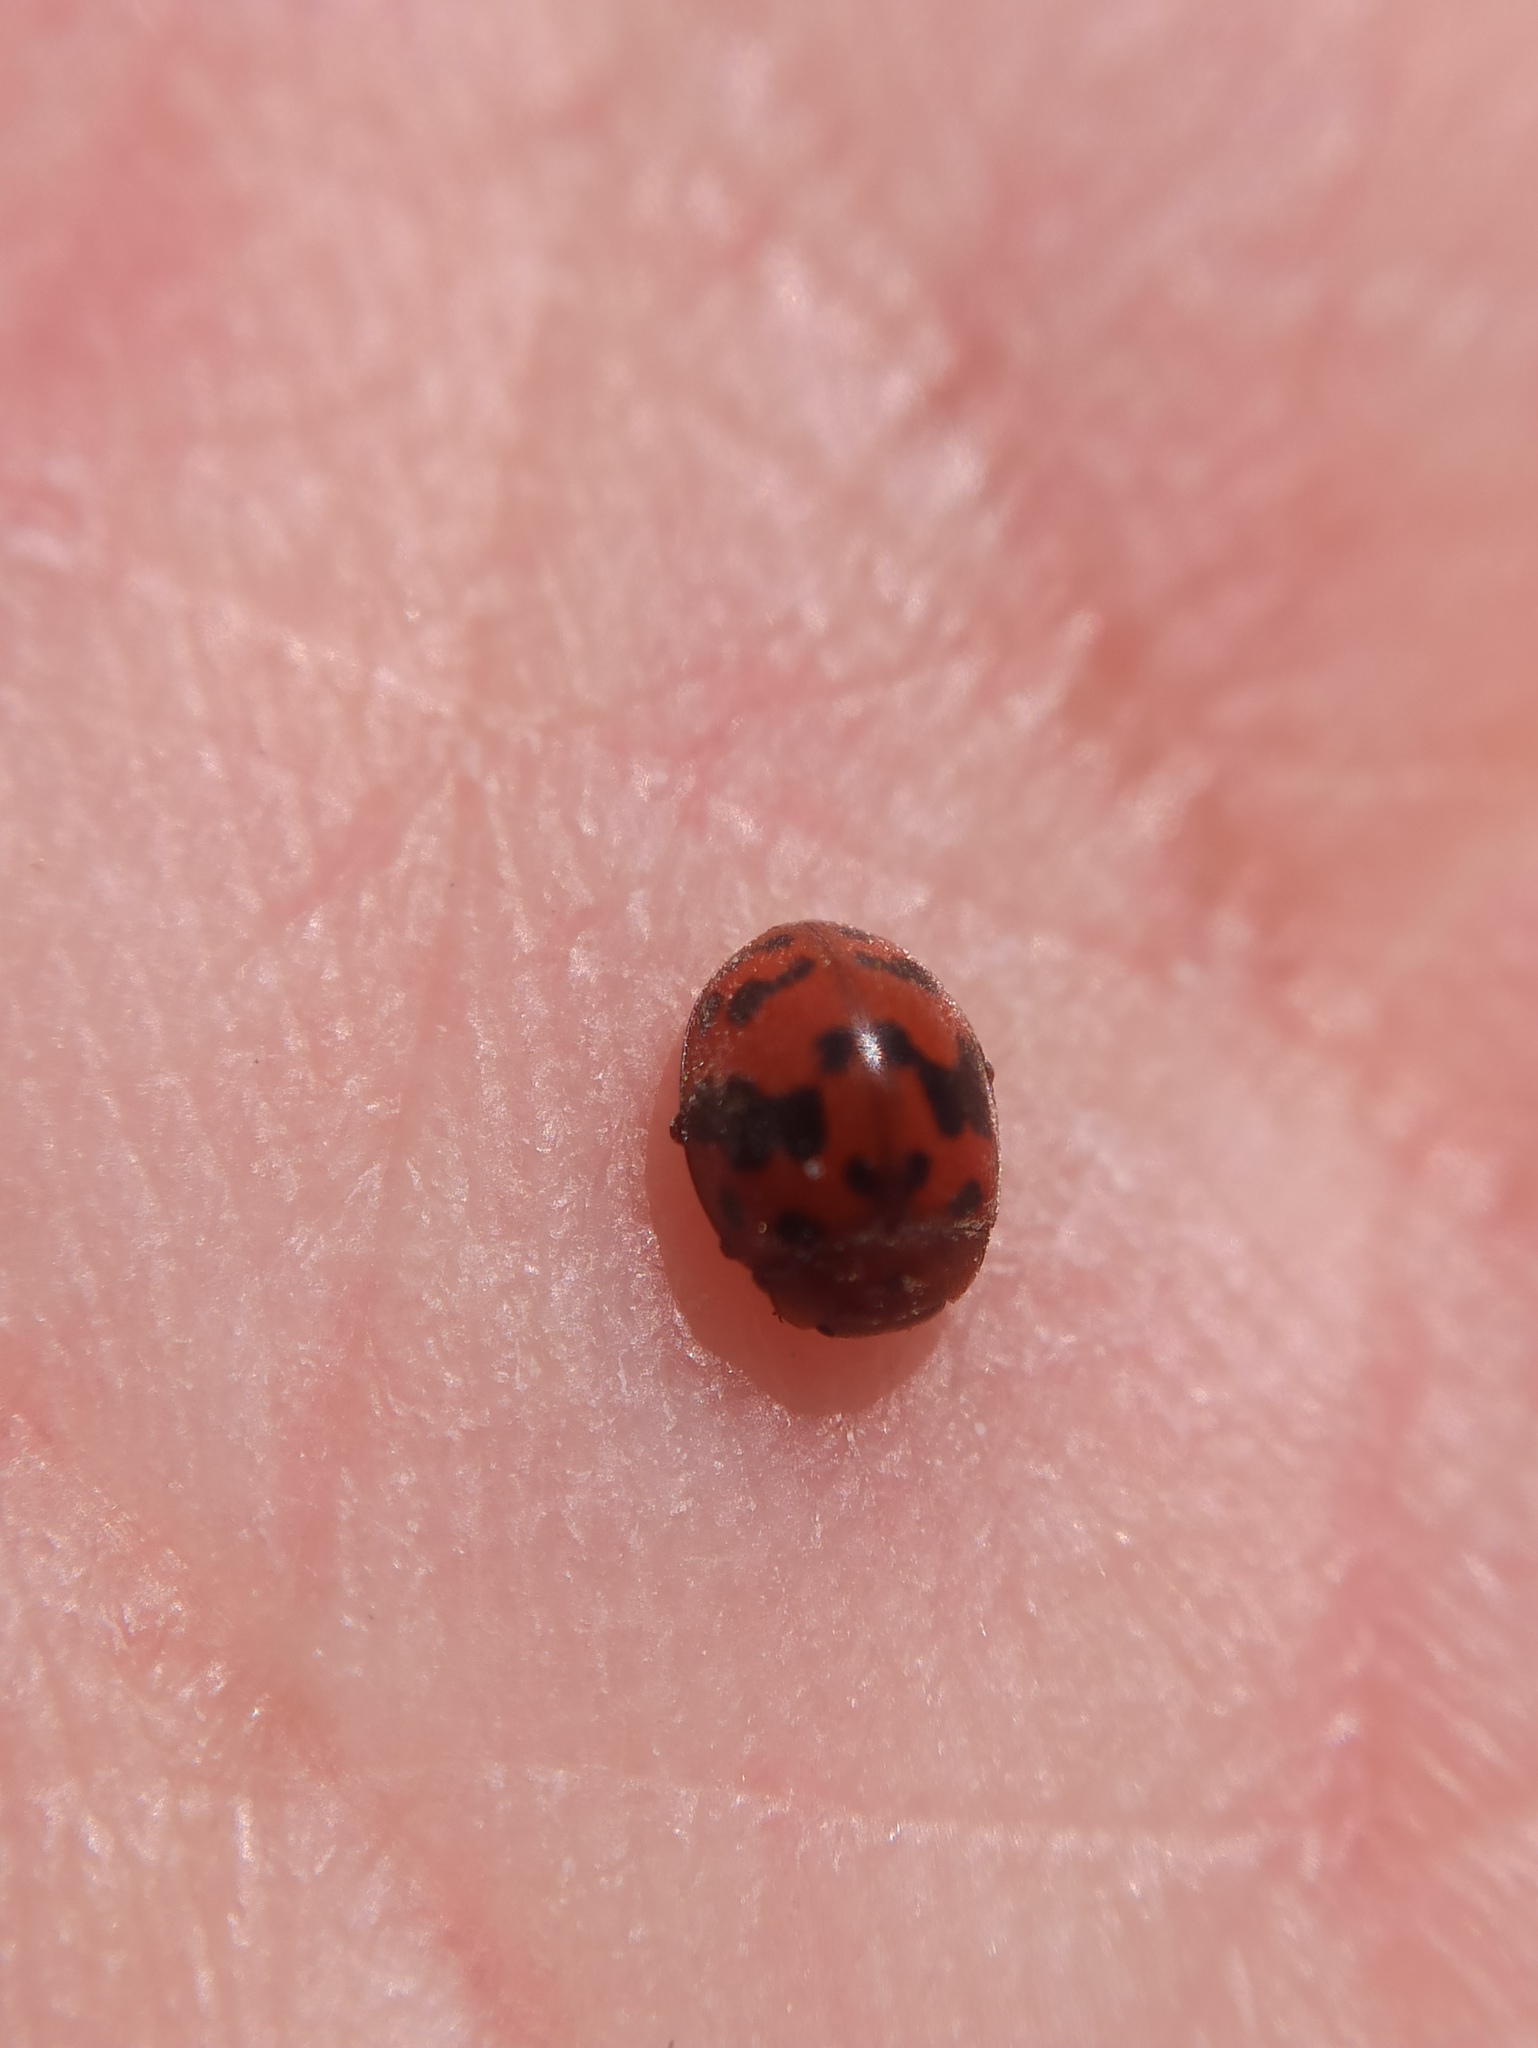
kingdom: Animalia
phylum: Arthropoda
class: Insecta
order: Coleoptera
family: Coccinellidae
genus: Subcoccinella
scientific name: Subcoccinella vigintiquatuorpunctata
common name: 24-spot ladybird
